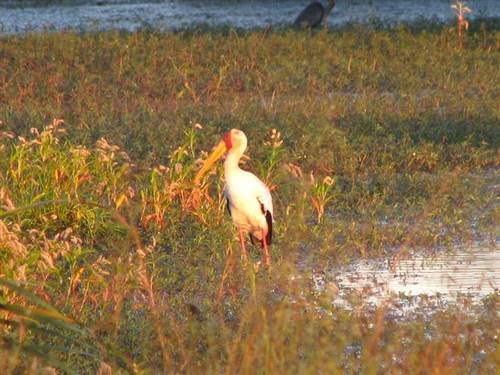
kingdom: Animalia
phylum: Chordata
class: Aves
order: Ciconiiformes
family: Ciconiidae
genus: Mycteria
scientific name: Mycteria ibis
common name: Yellow-billed stork
